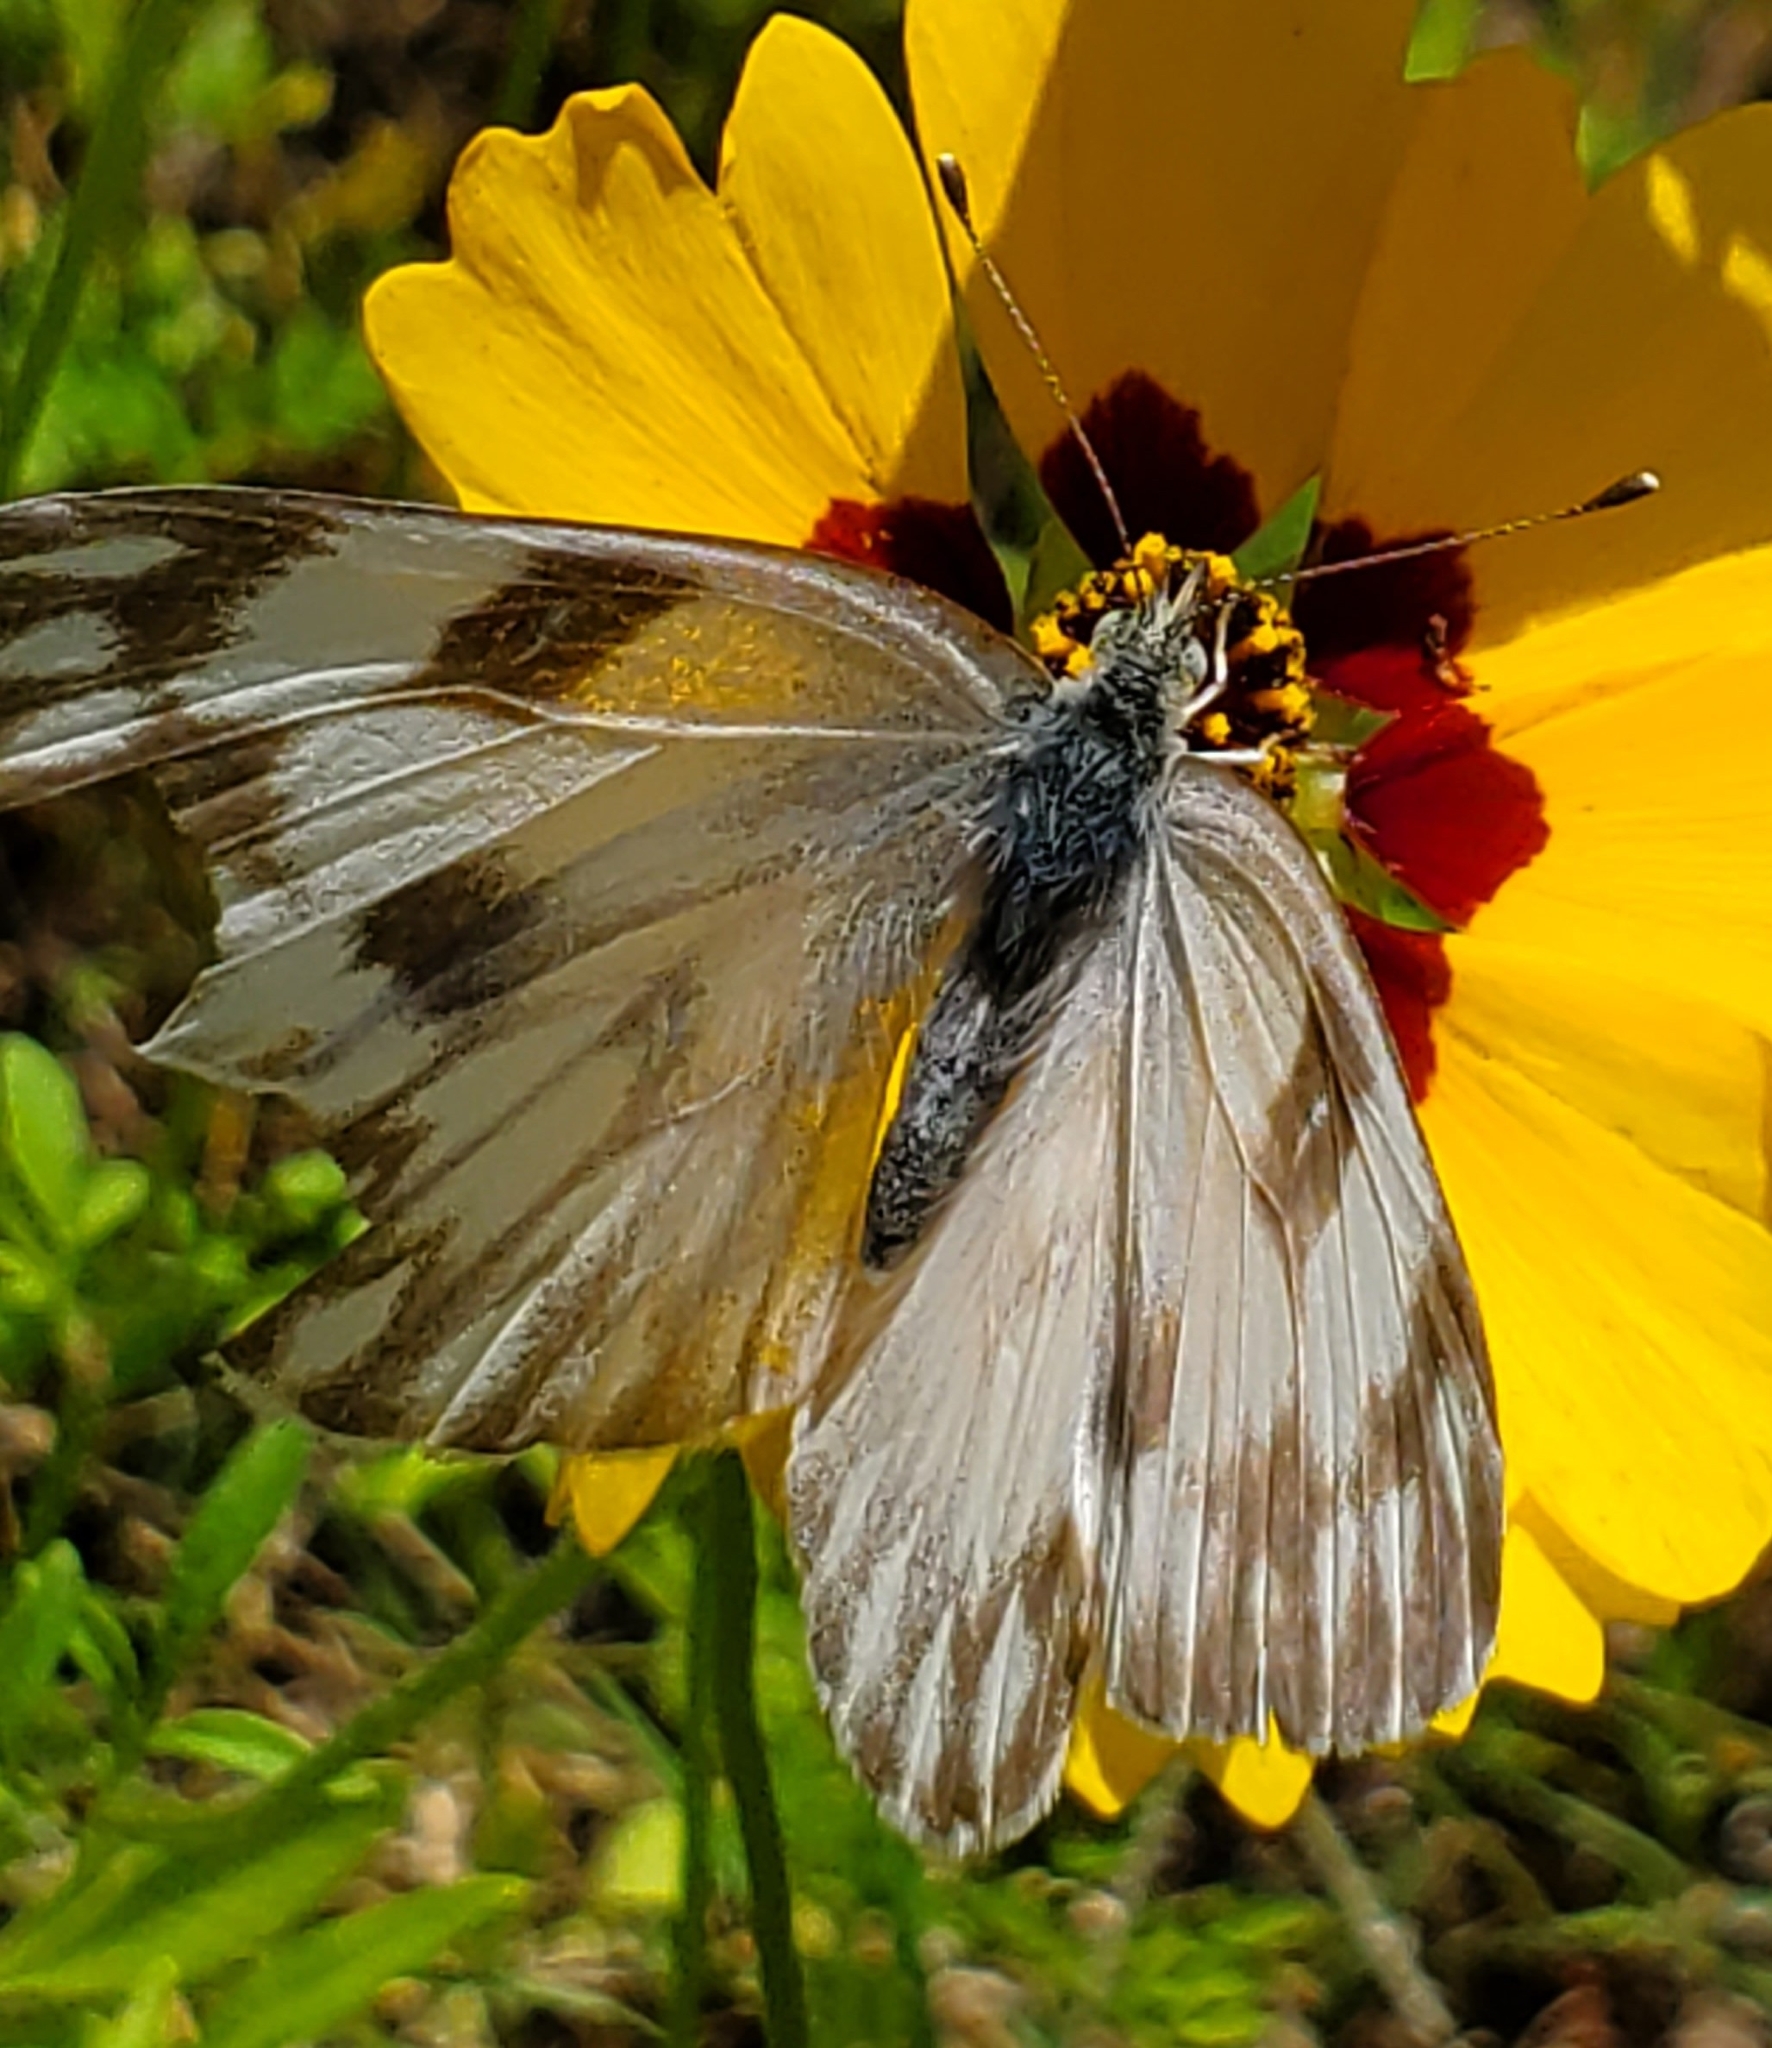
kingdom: Animalia
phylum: Arthropoda
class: Insecta
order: Lepidoptera
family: Pieridae
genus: Pontia
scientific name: Pontia protodice
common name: Checkered white
